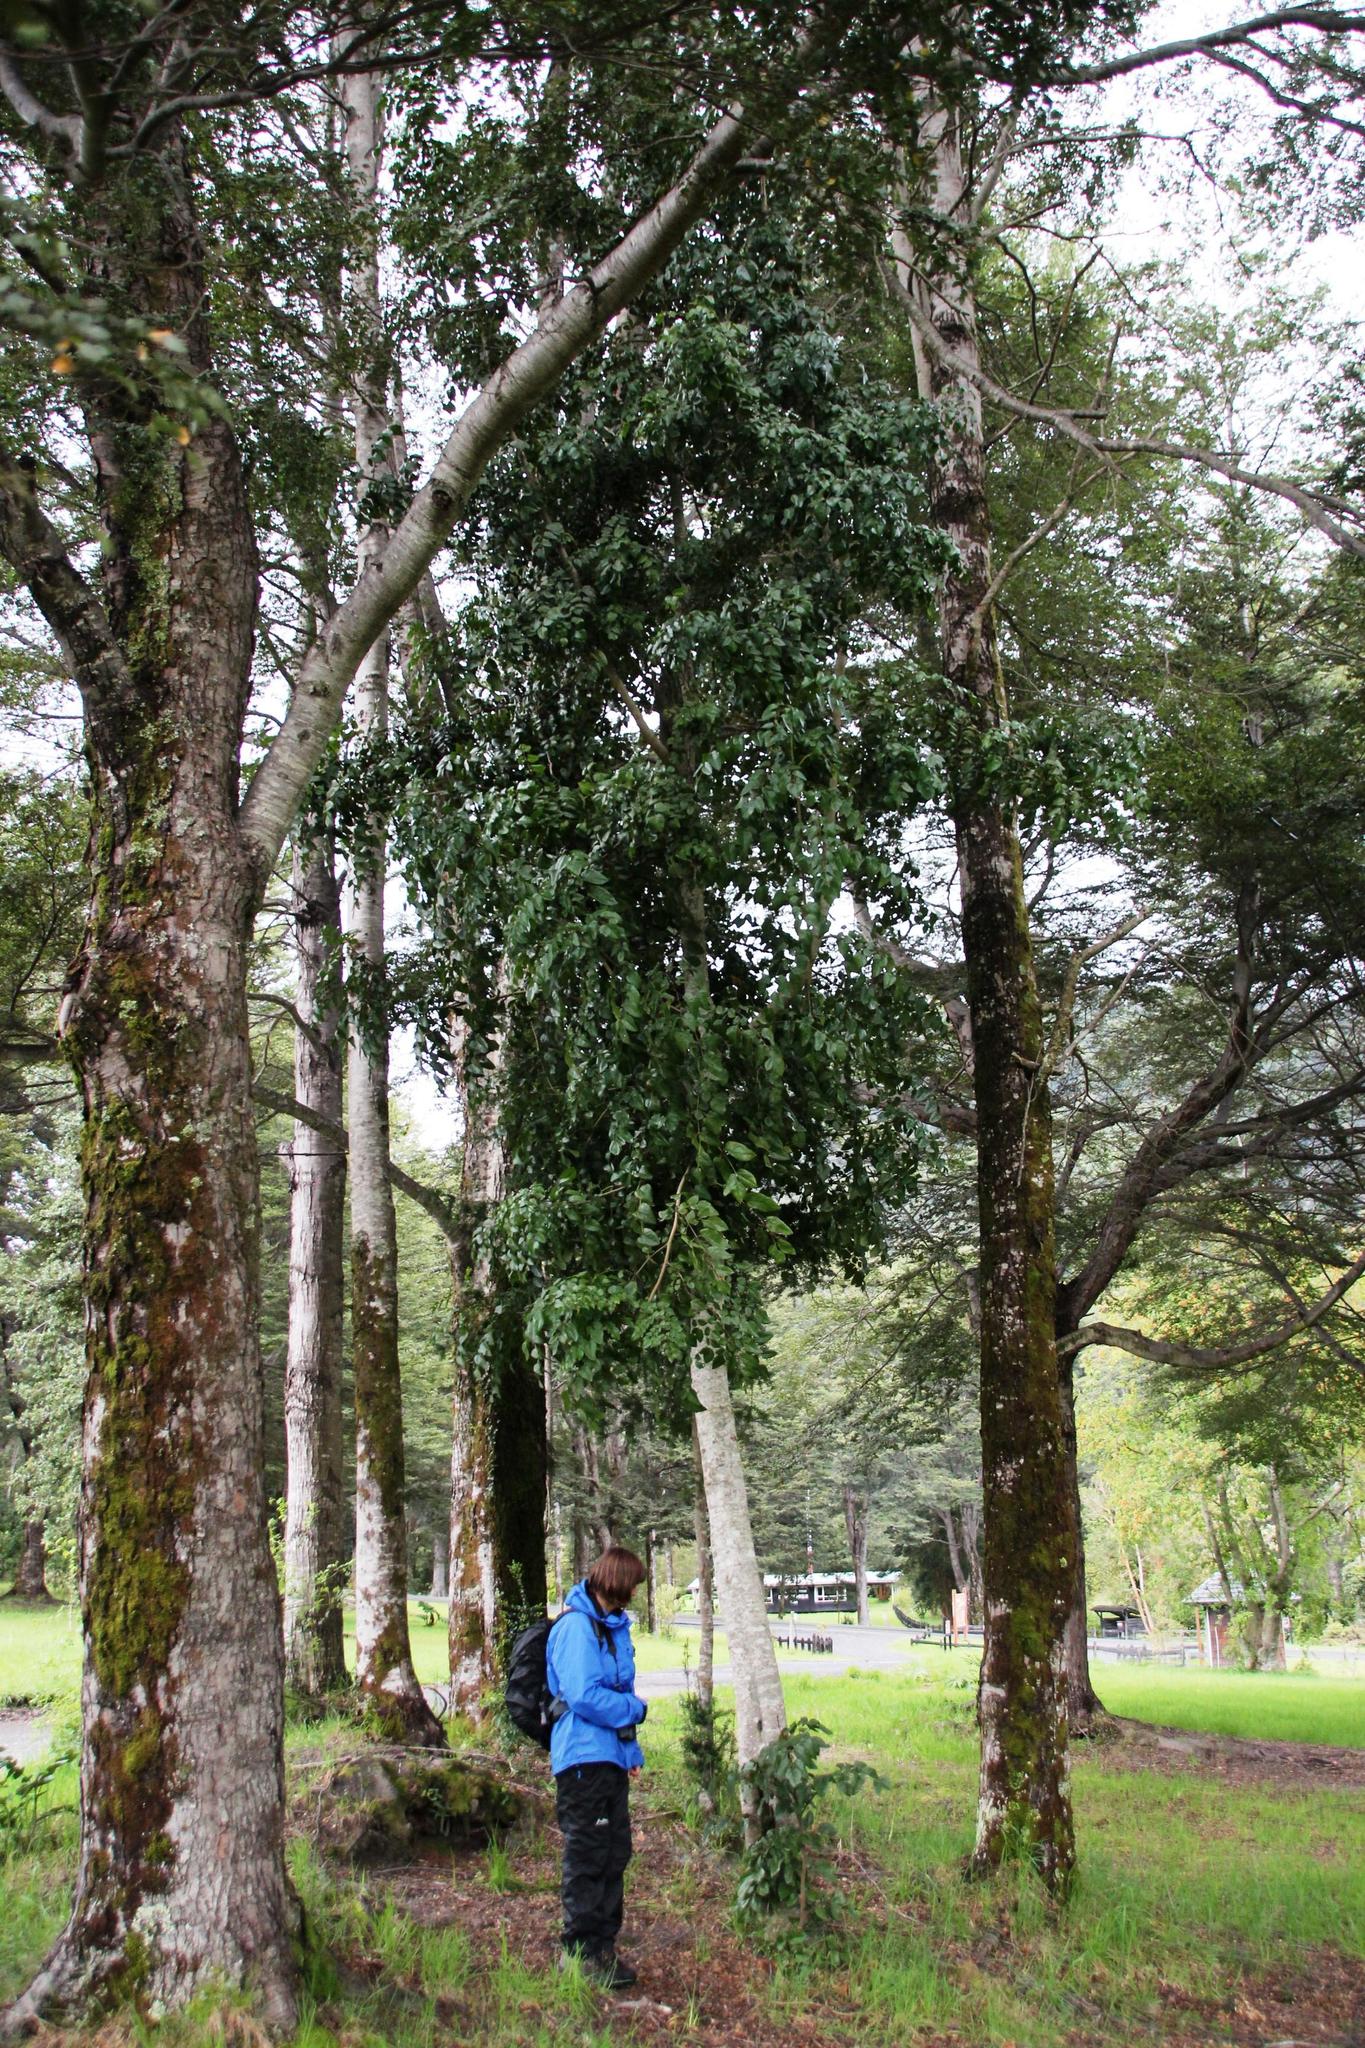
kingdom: Plantae
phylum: Tracheophyta
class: Magnoliopsida
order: Proteales
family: Proteaceae
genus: Gevuina
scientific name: Gevuina avellana
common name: Chilean hazel
